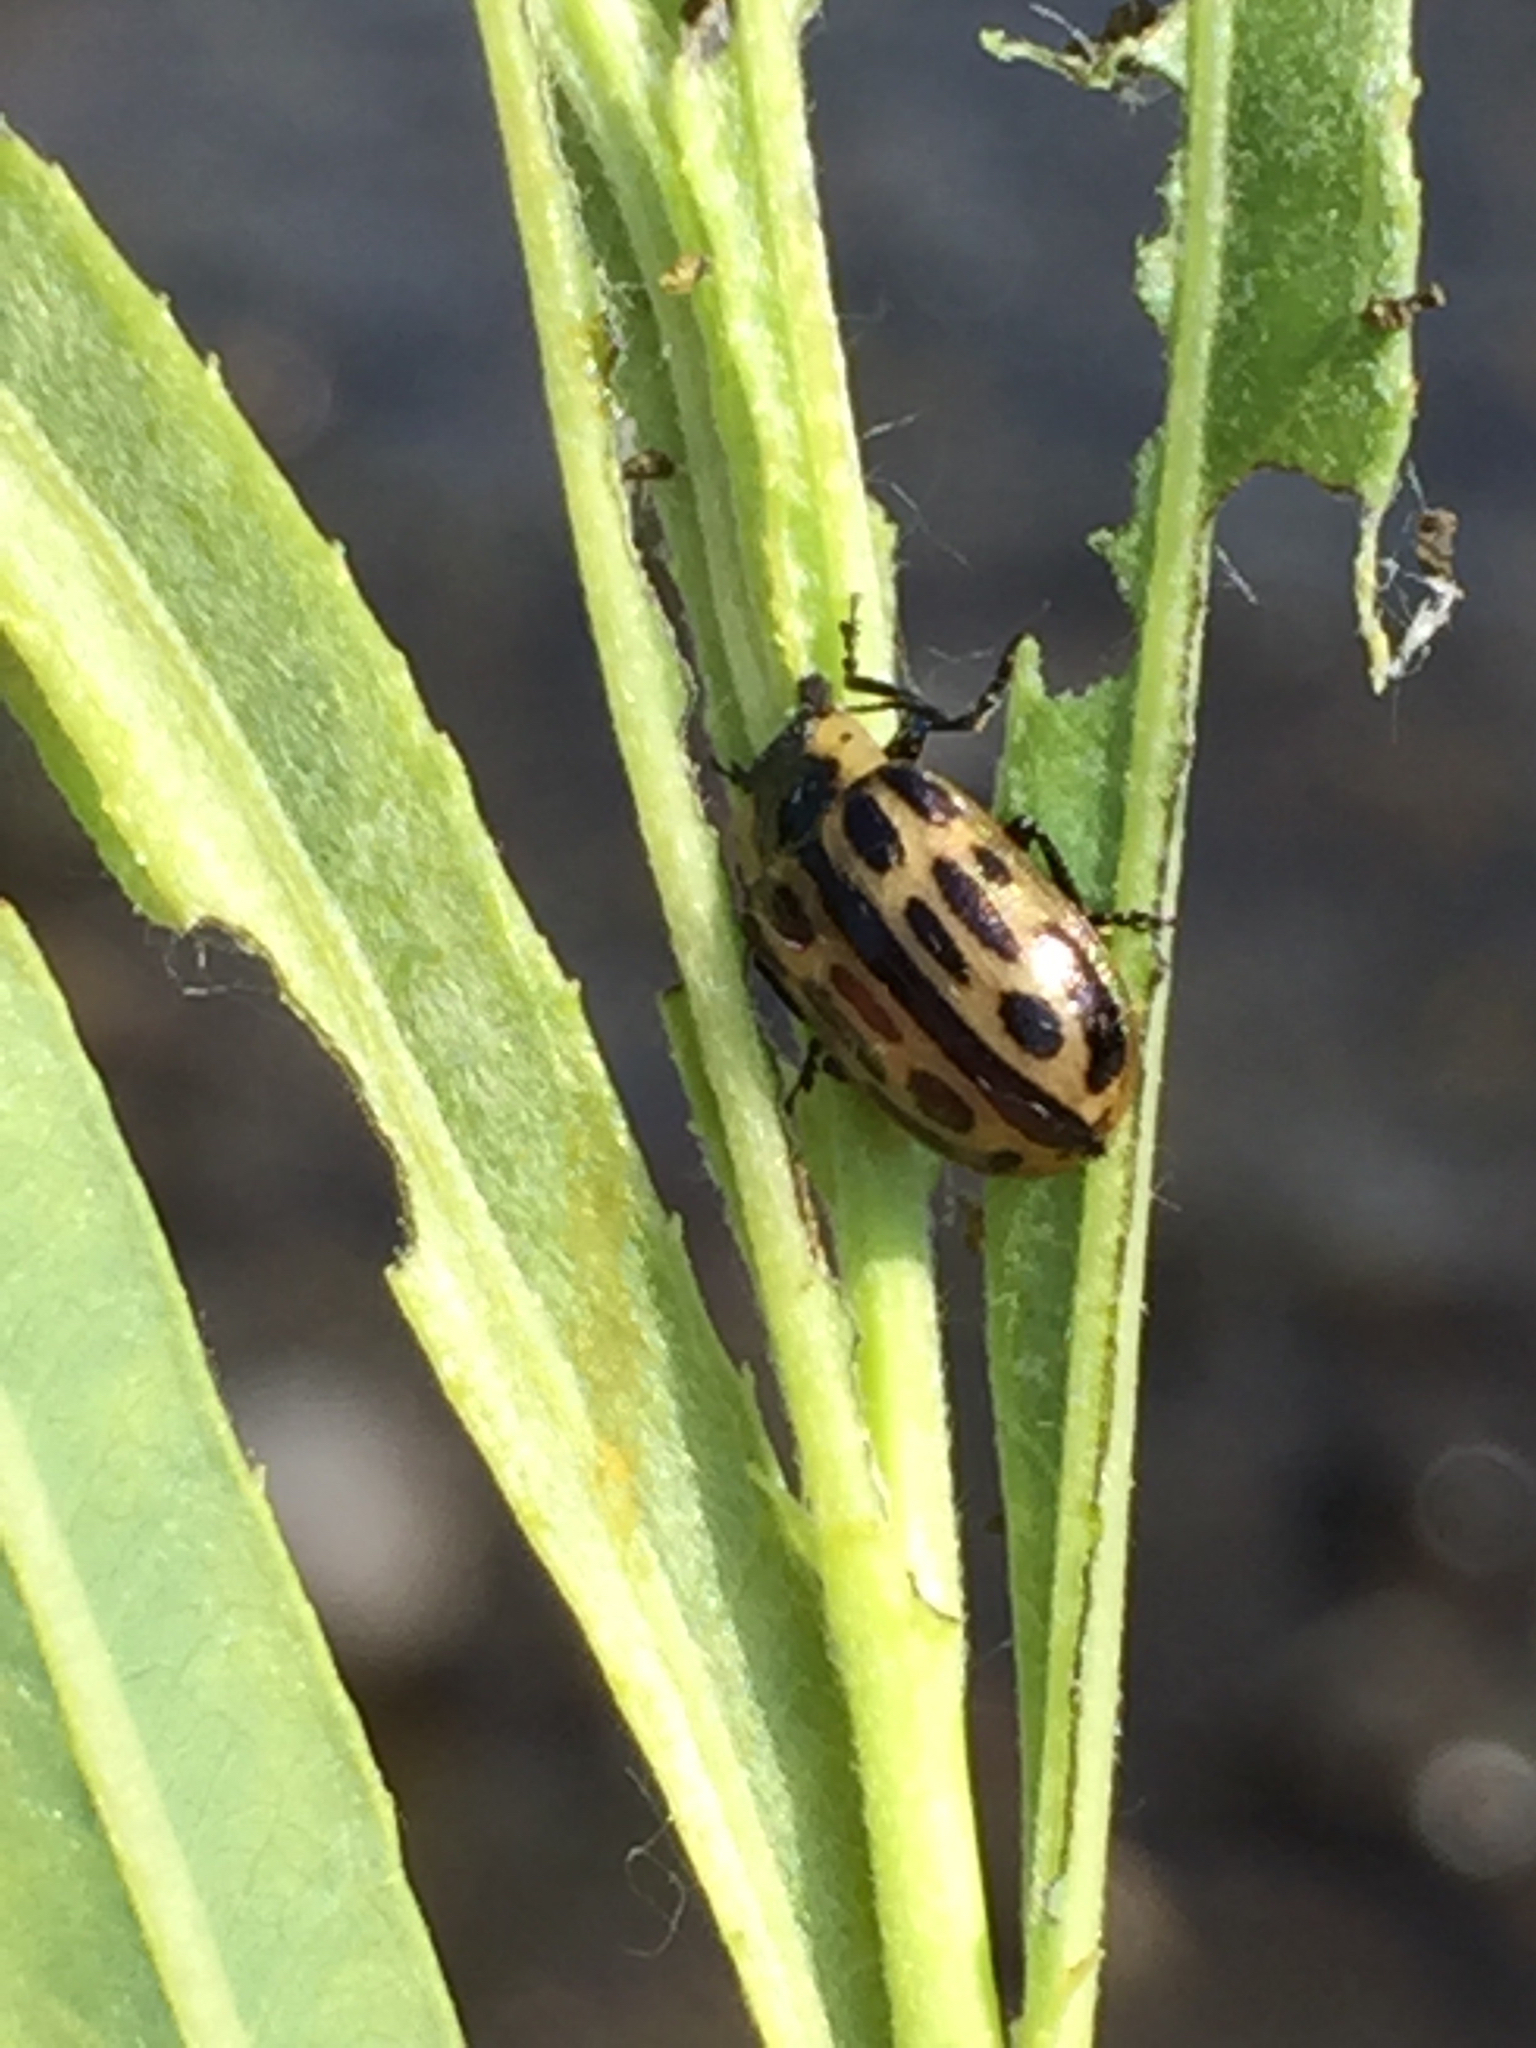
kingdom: Animalia
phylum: Arthropoda
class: Insecta
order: Coleoptera
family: Chrysomelidae
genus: Chrysomela
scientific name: Chrysomela confluens
